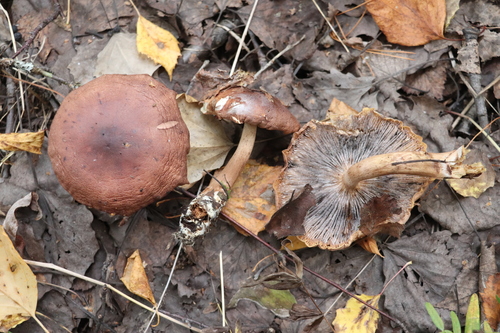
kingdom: Fungi
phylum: Basidiomycota
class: Agaricomycetes
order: Agaricales
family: Tricholomataceae
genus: Tricholoma
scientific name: Tricholoma fulvum
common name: Birch knight
